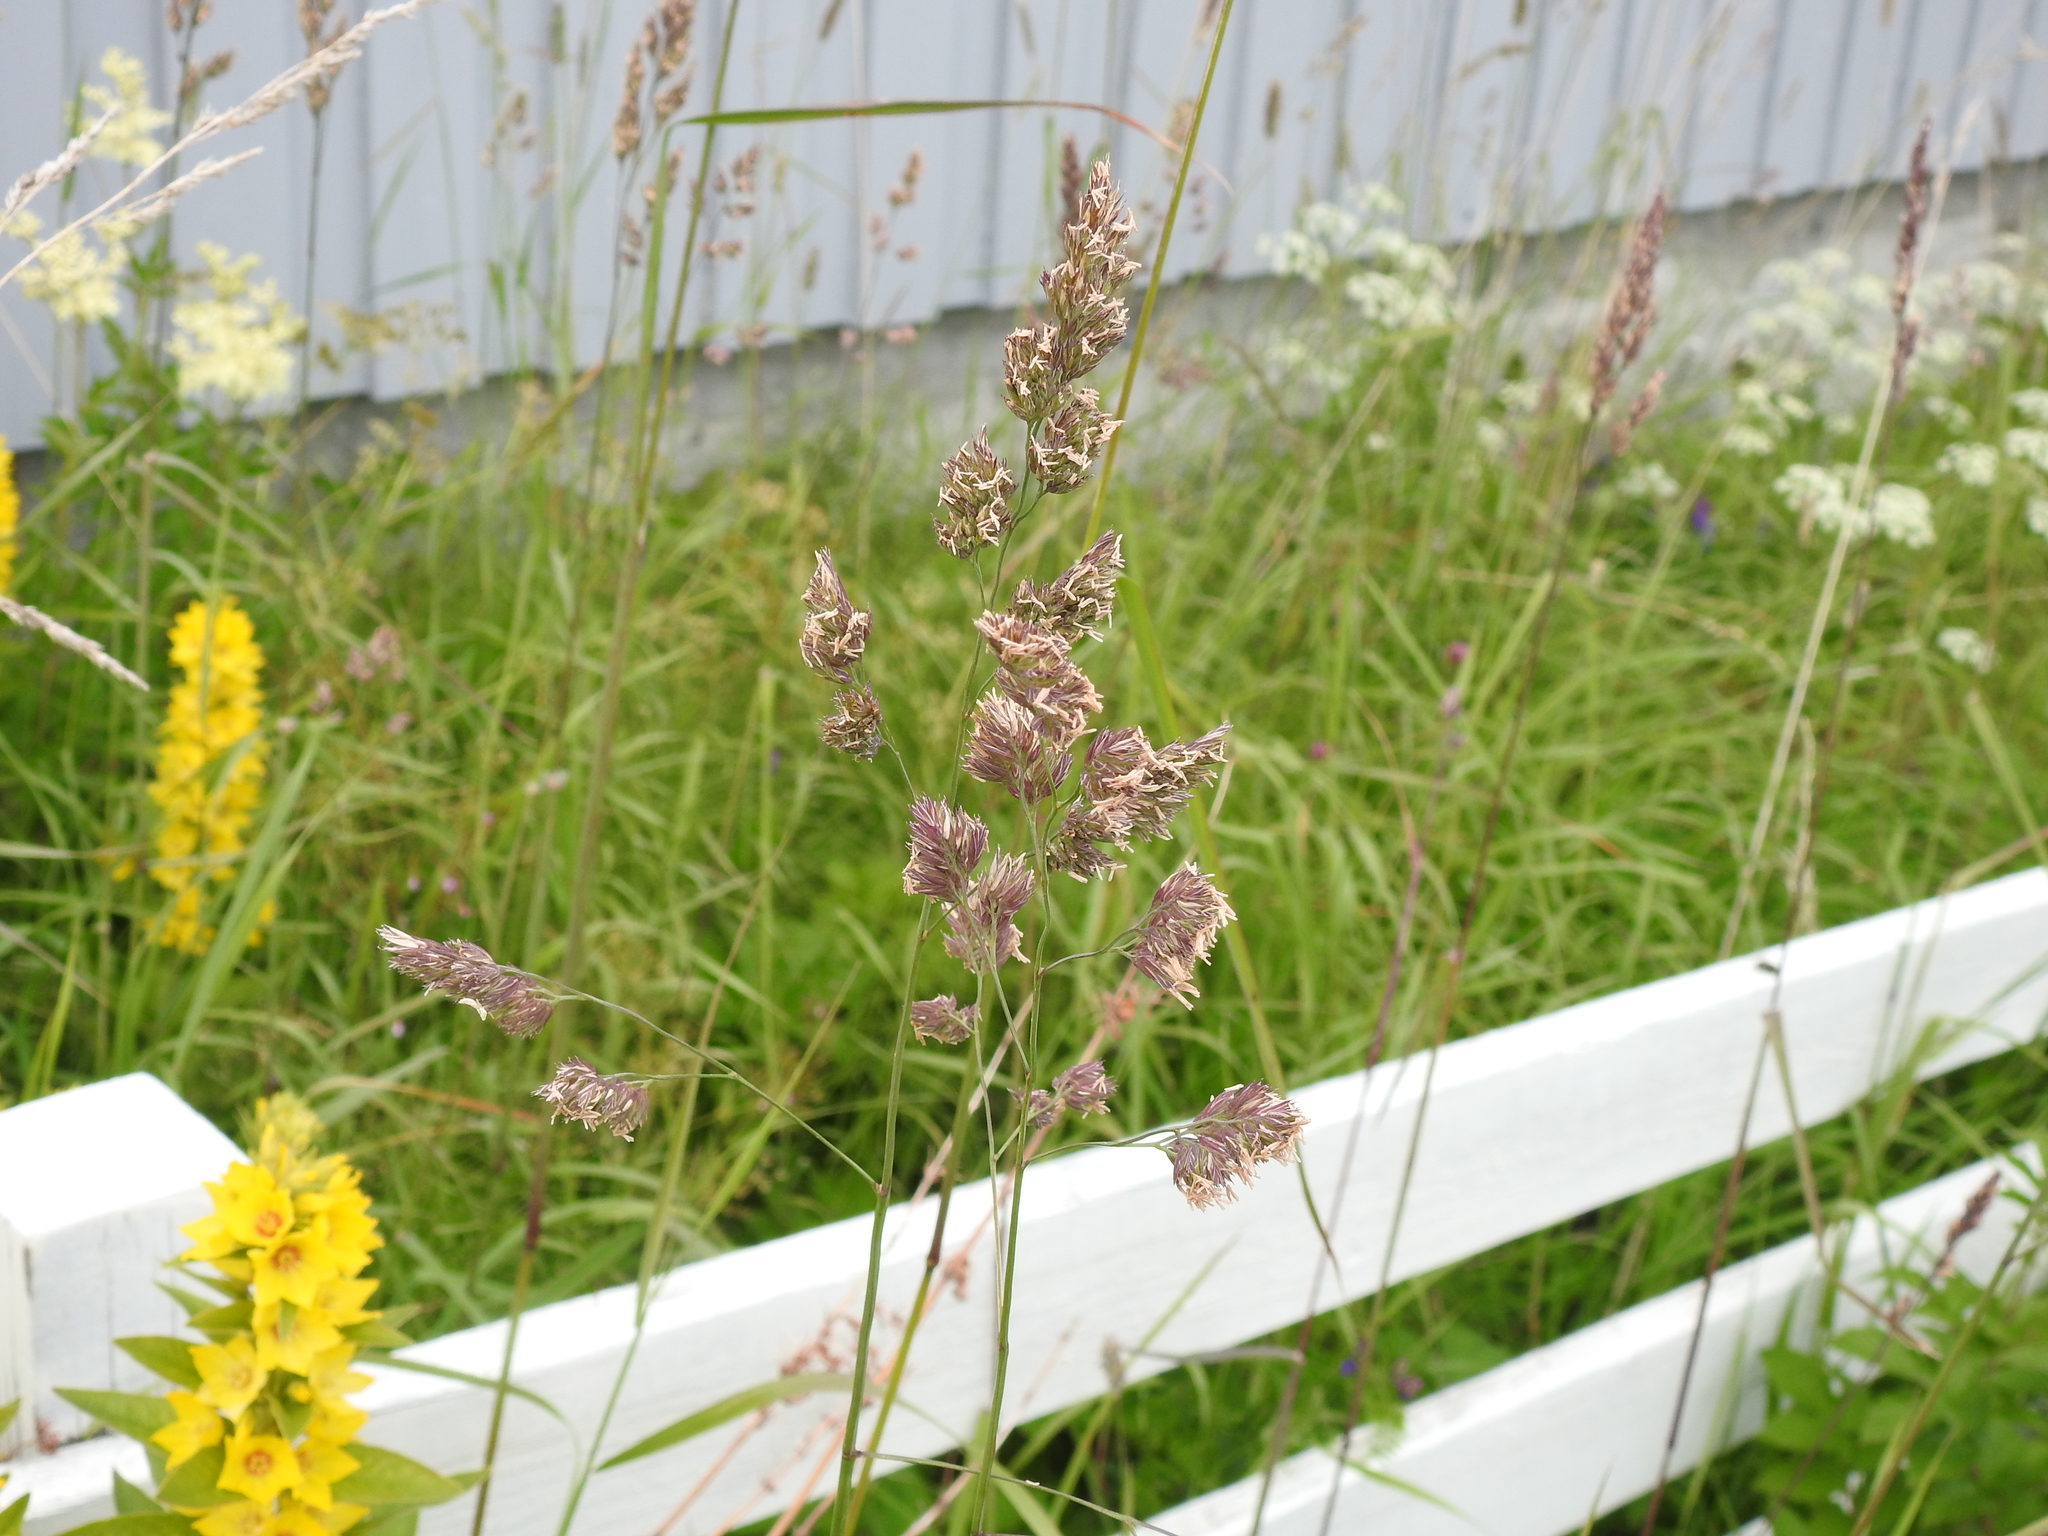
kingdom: Plantae
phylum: Tracheophyta
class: Liliopsida
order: Poales
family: Poaceae
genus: Dactylis
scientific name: Dactylis glomerata
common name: Orchardgrass
